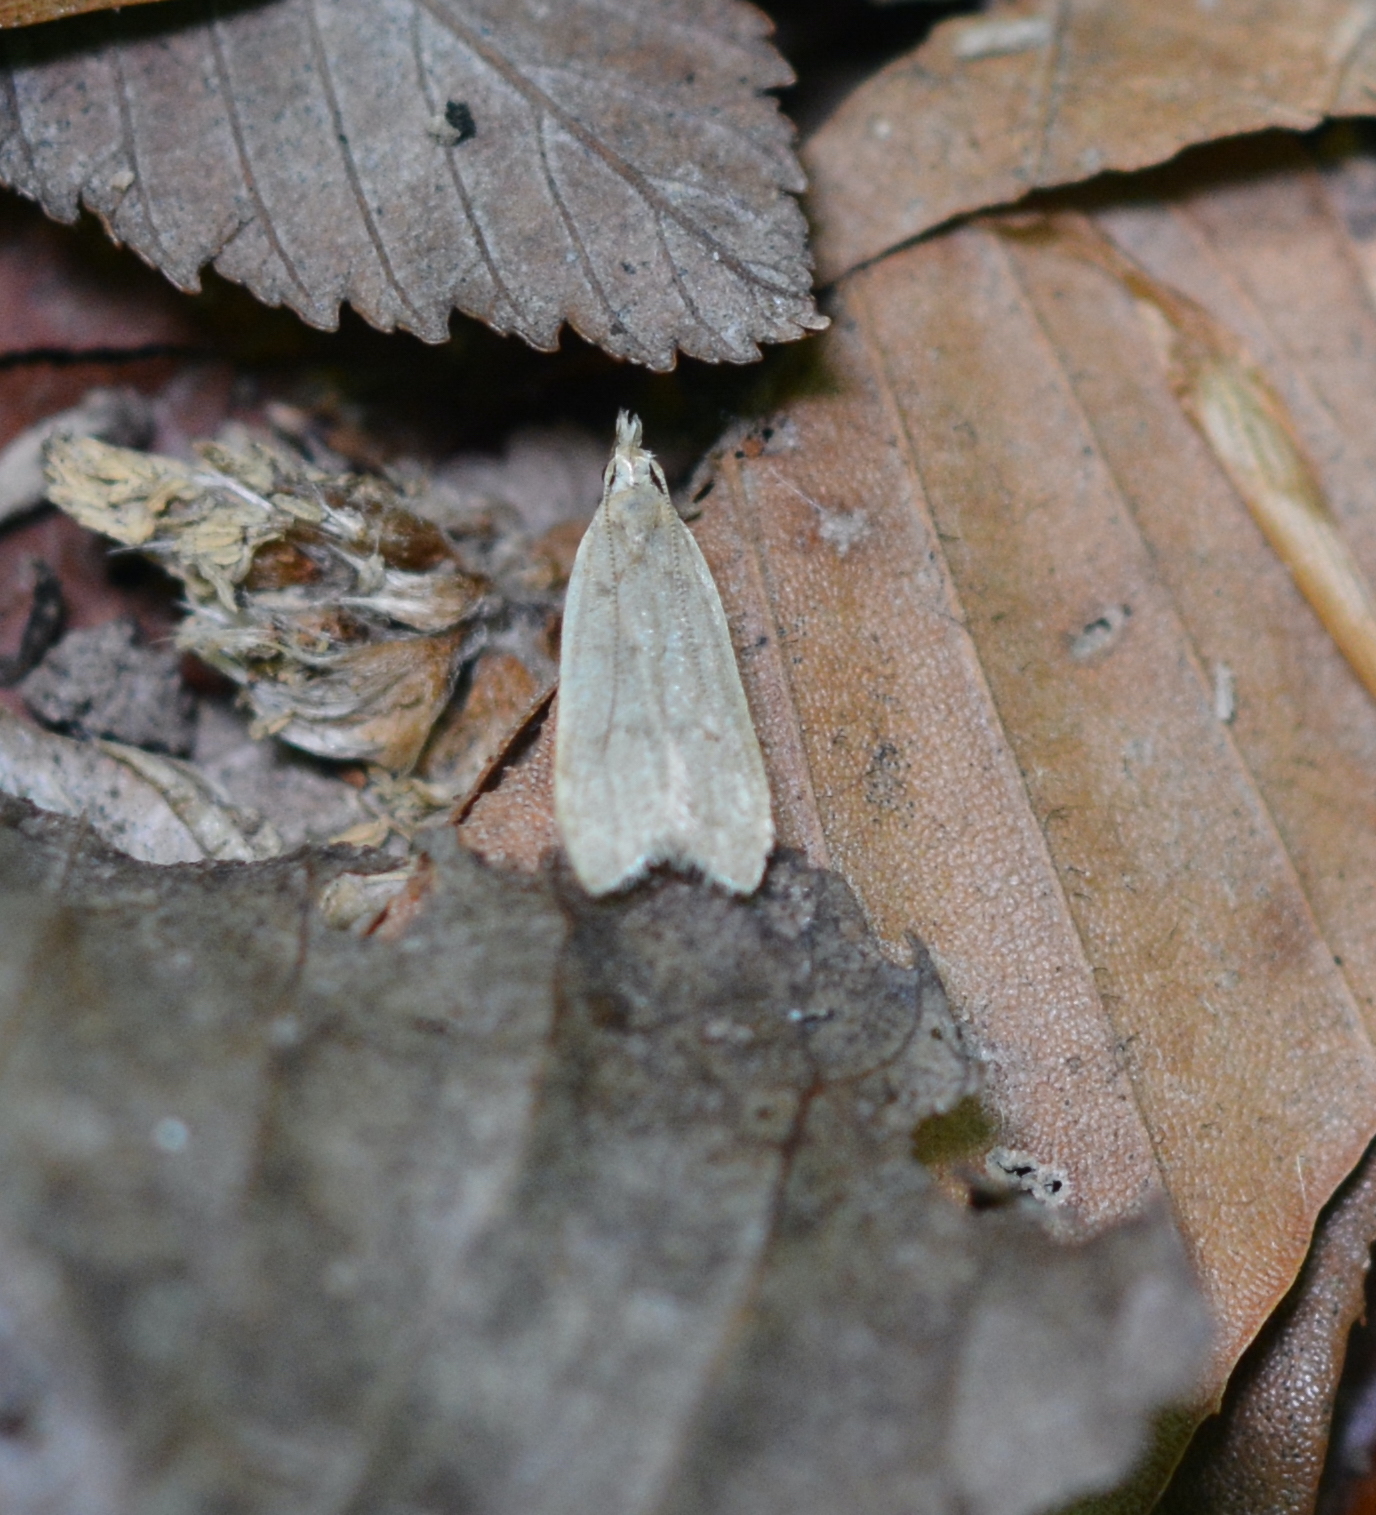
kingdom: Animalia
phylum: Arthropoda
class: Insecta
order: Lepidoptera
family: Gelechiidae
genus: Dichomeris
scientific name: Dichomeris punctidiscellus
